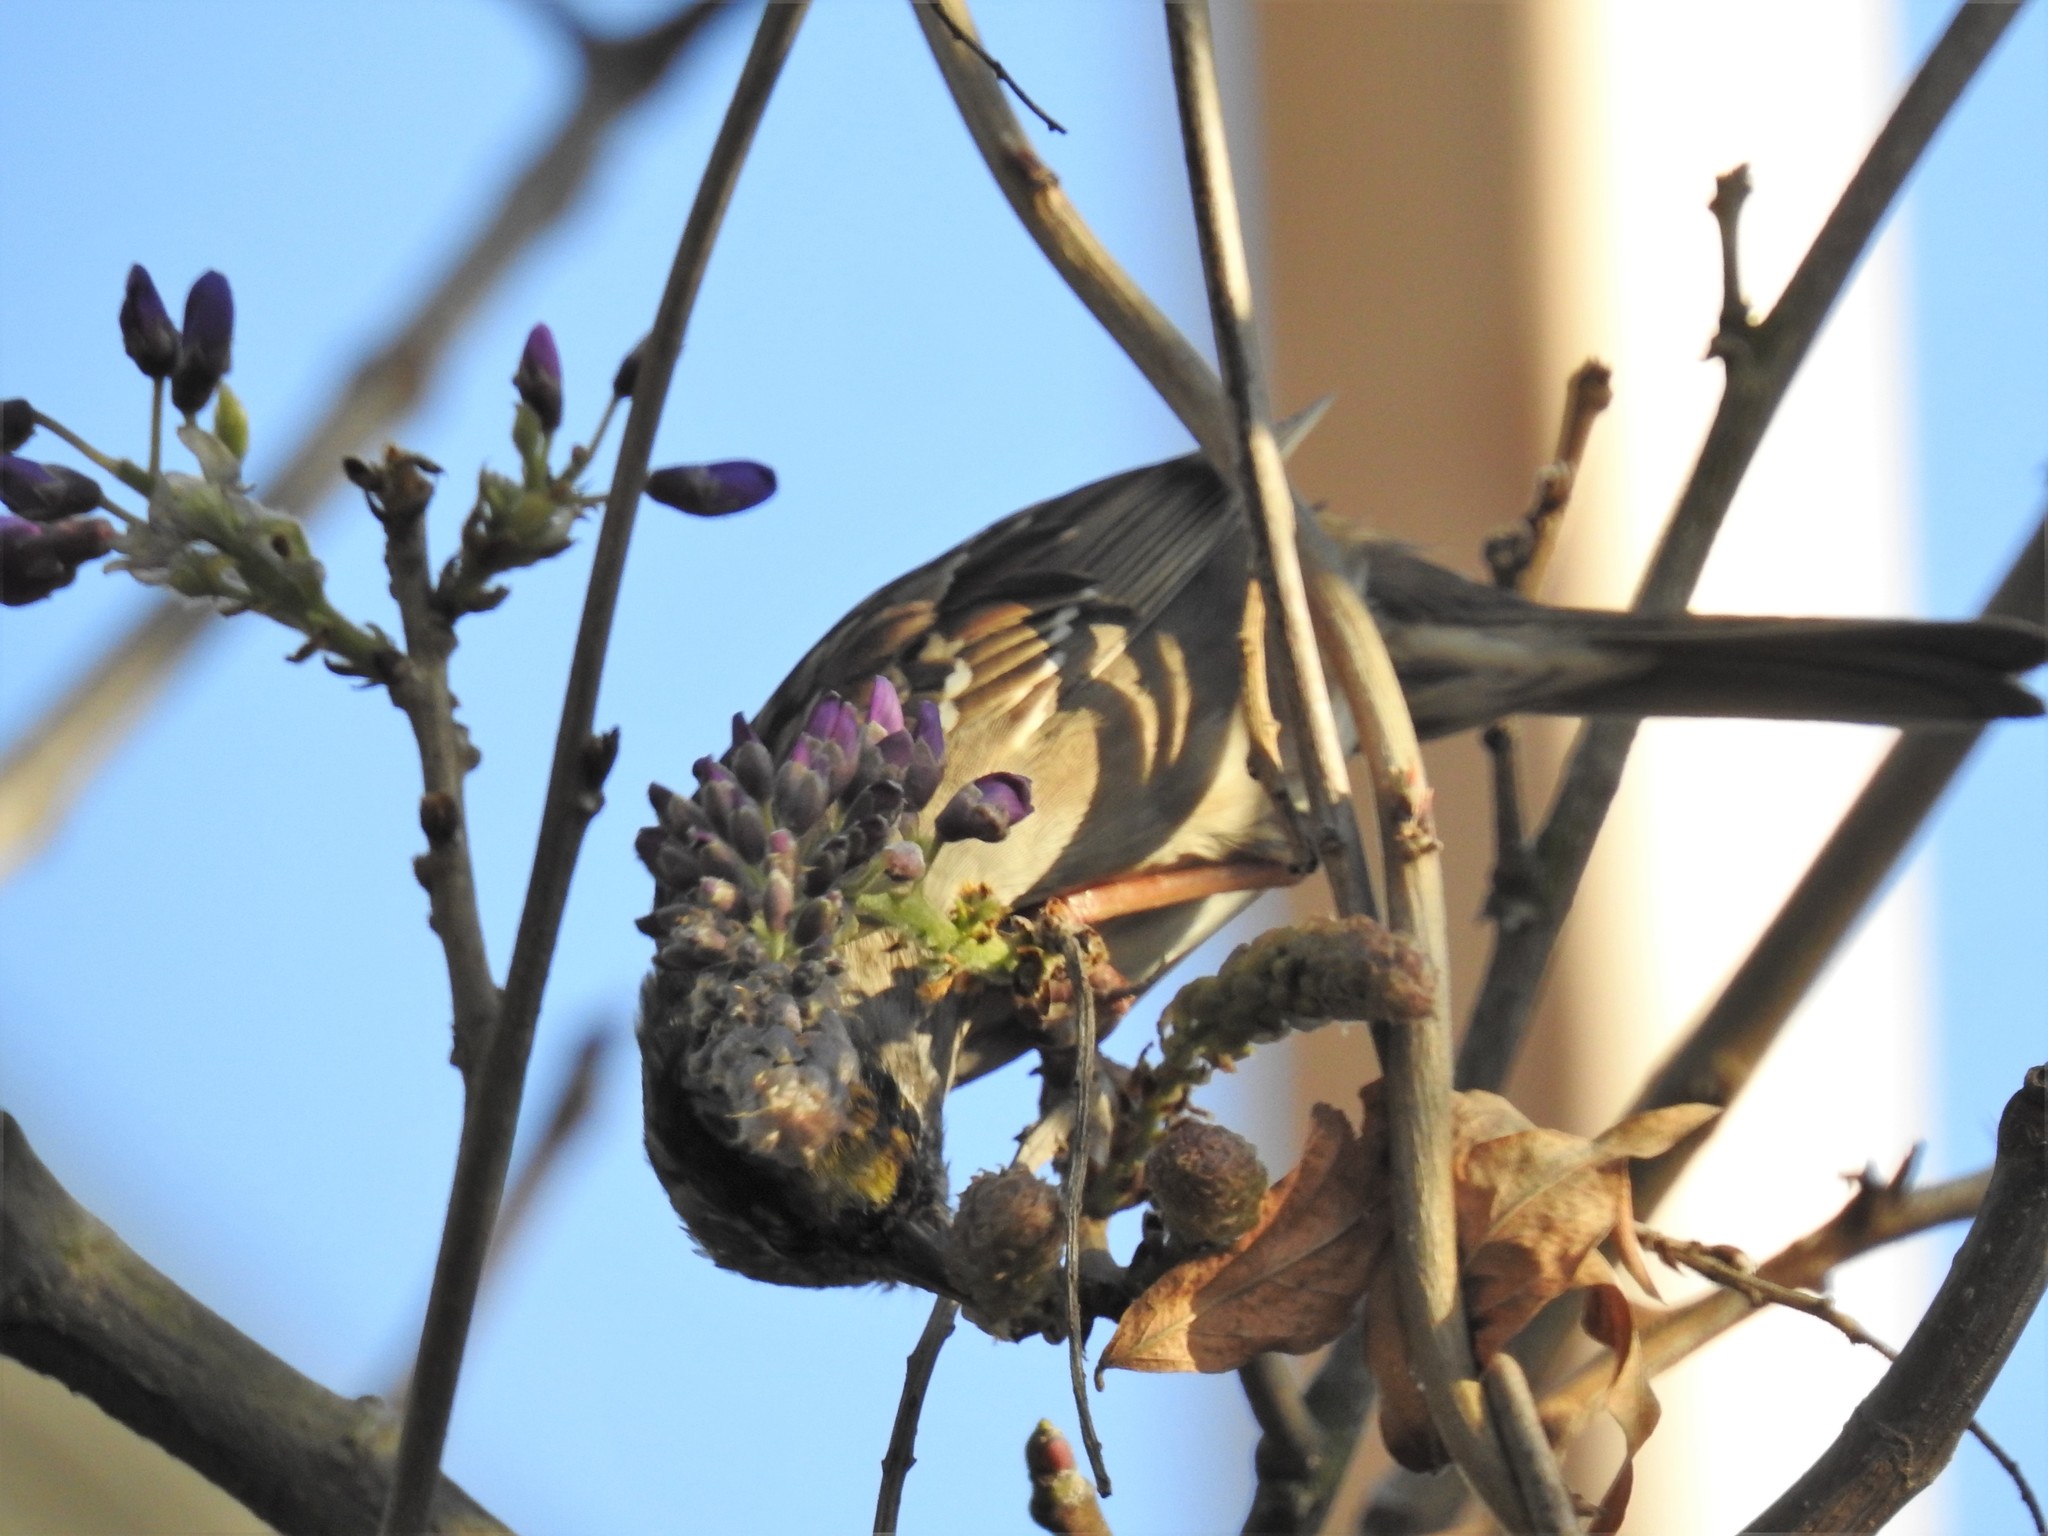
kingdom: Animalia
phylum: Chordata
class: Aves
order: Passeriformes
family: Passerellidae
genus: Zonotrichia
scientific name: Zonotrichia atricapilla
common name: Golden-crowned sparrow
